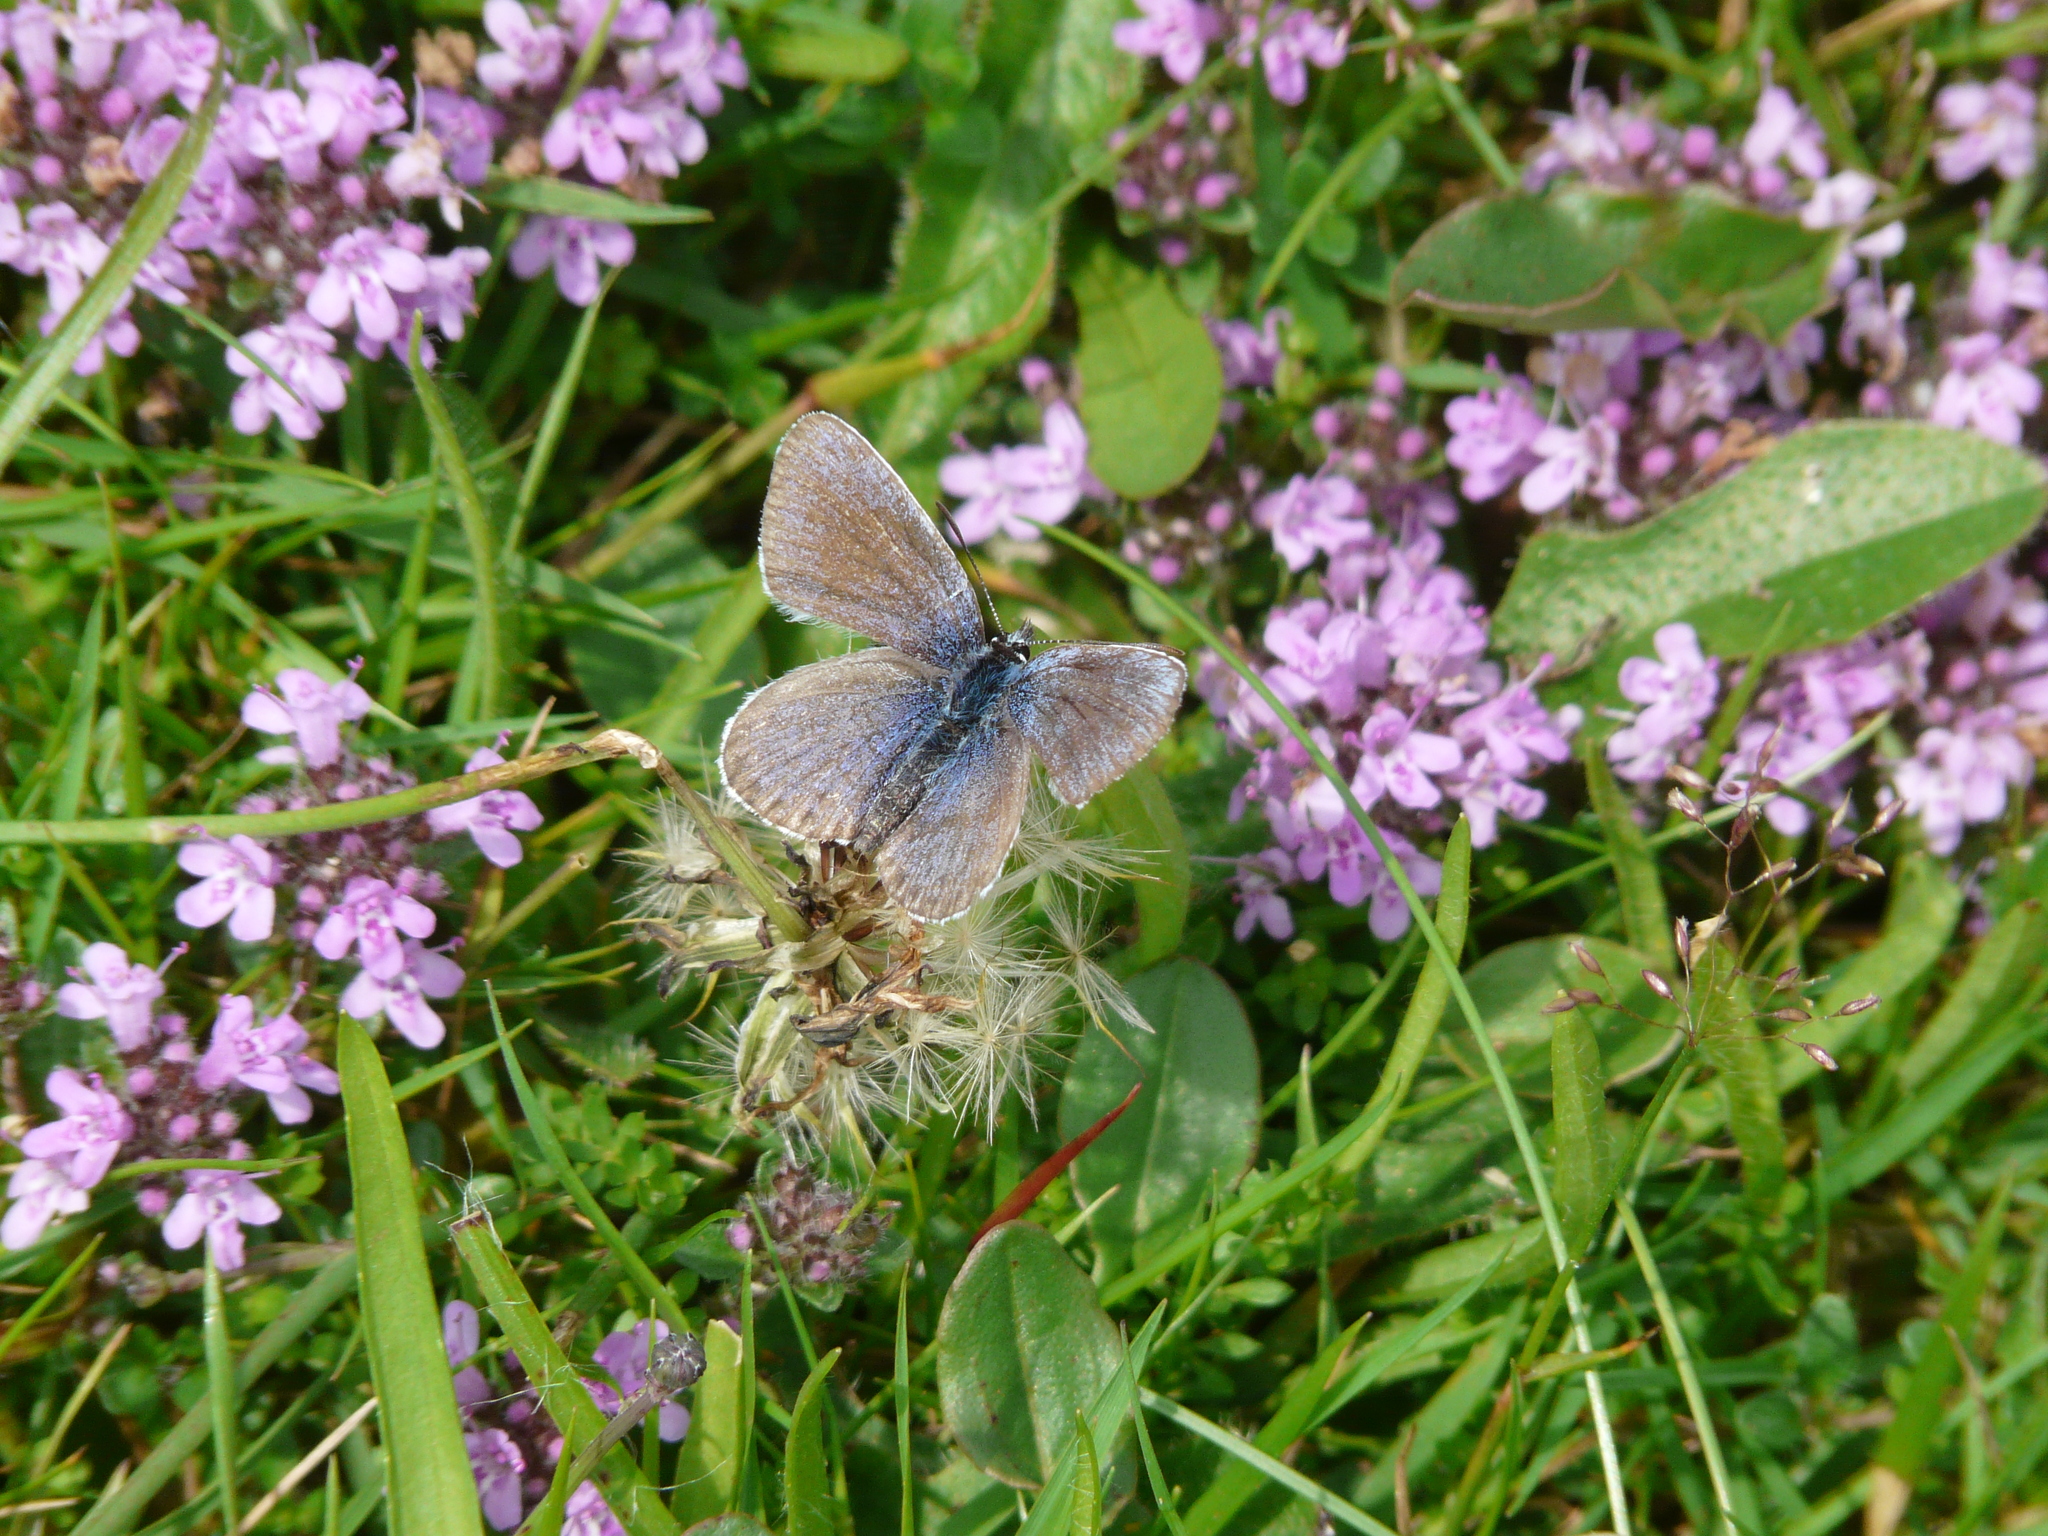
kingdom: Animalia
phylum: Arthropoda
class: Insecta
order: Lepidoptera
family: Lycaenidae
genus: Plebejus
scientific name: Plebejus argus
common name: Silver-studded blue
